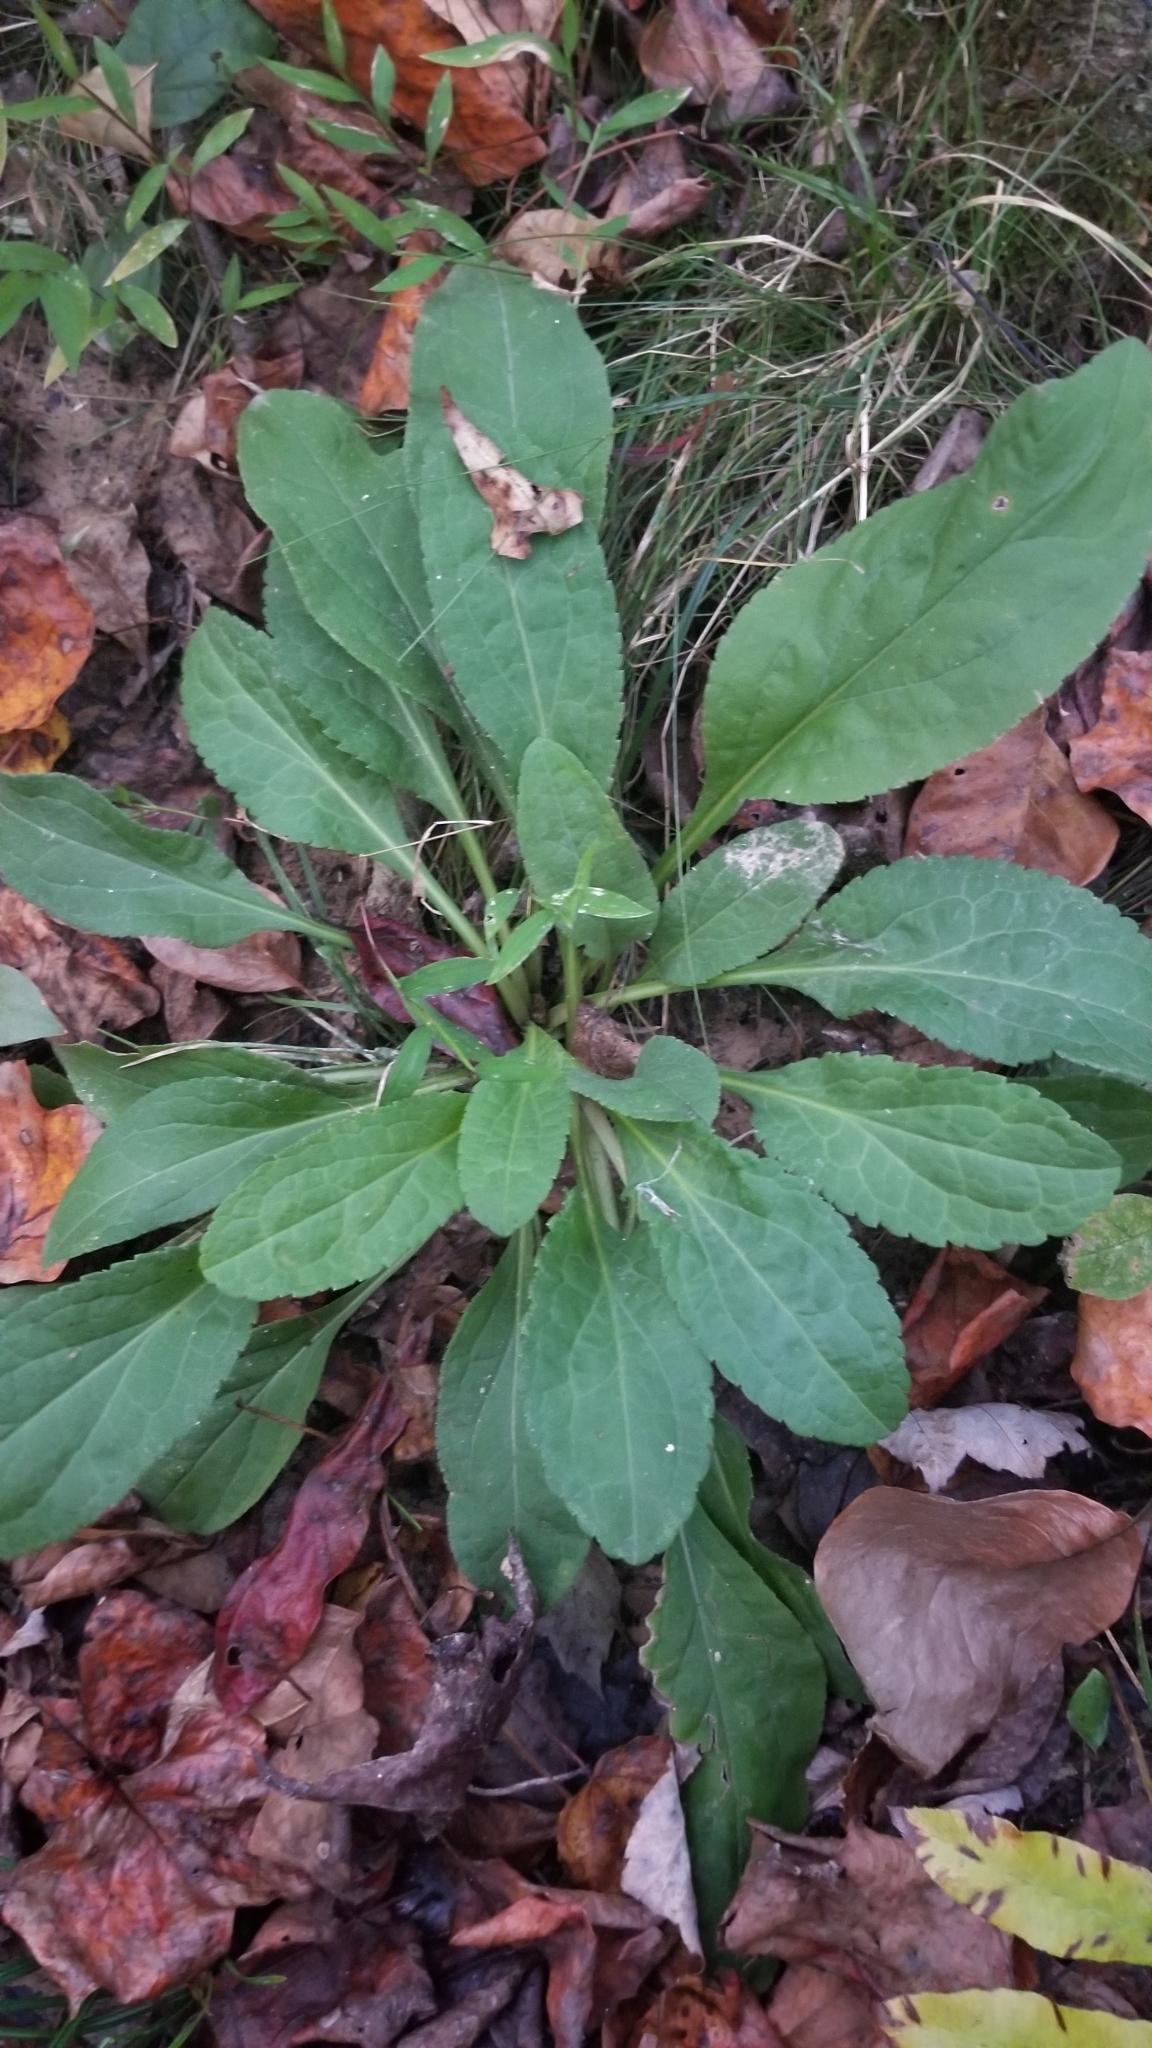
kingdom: Plantae
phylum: Tracheophyta
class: Magnoliopsida
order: Asterales
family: Asteraceae
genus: Solidago
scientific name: Solidago patula
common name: Rough-leaf goldenrod
